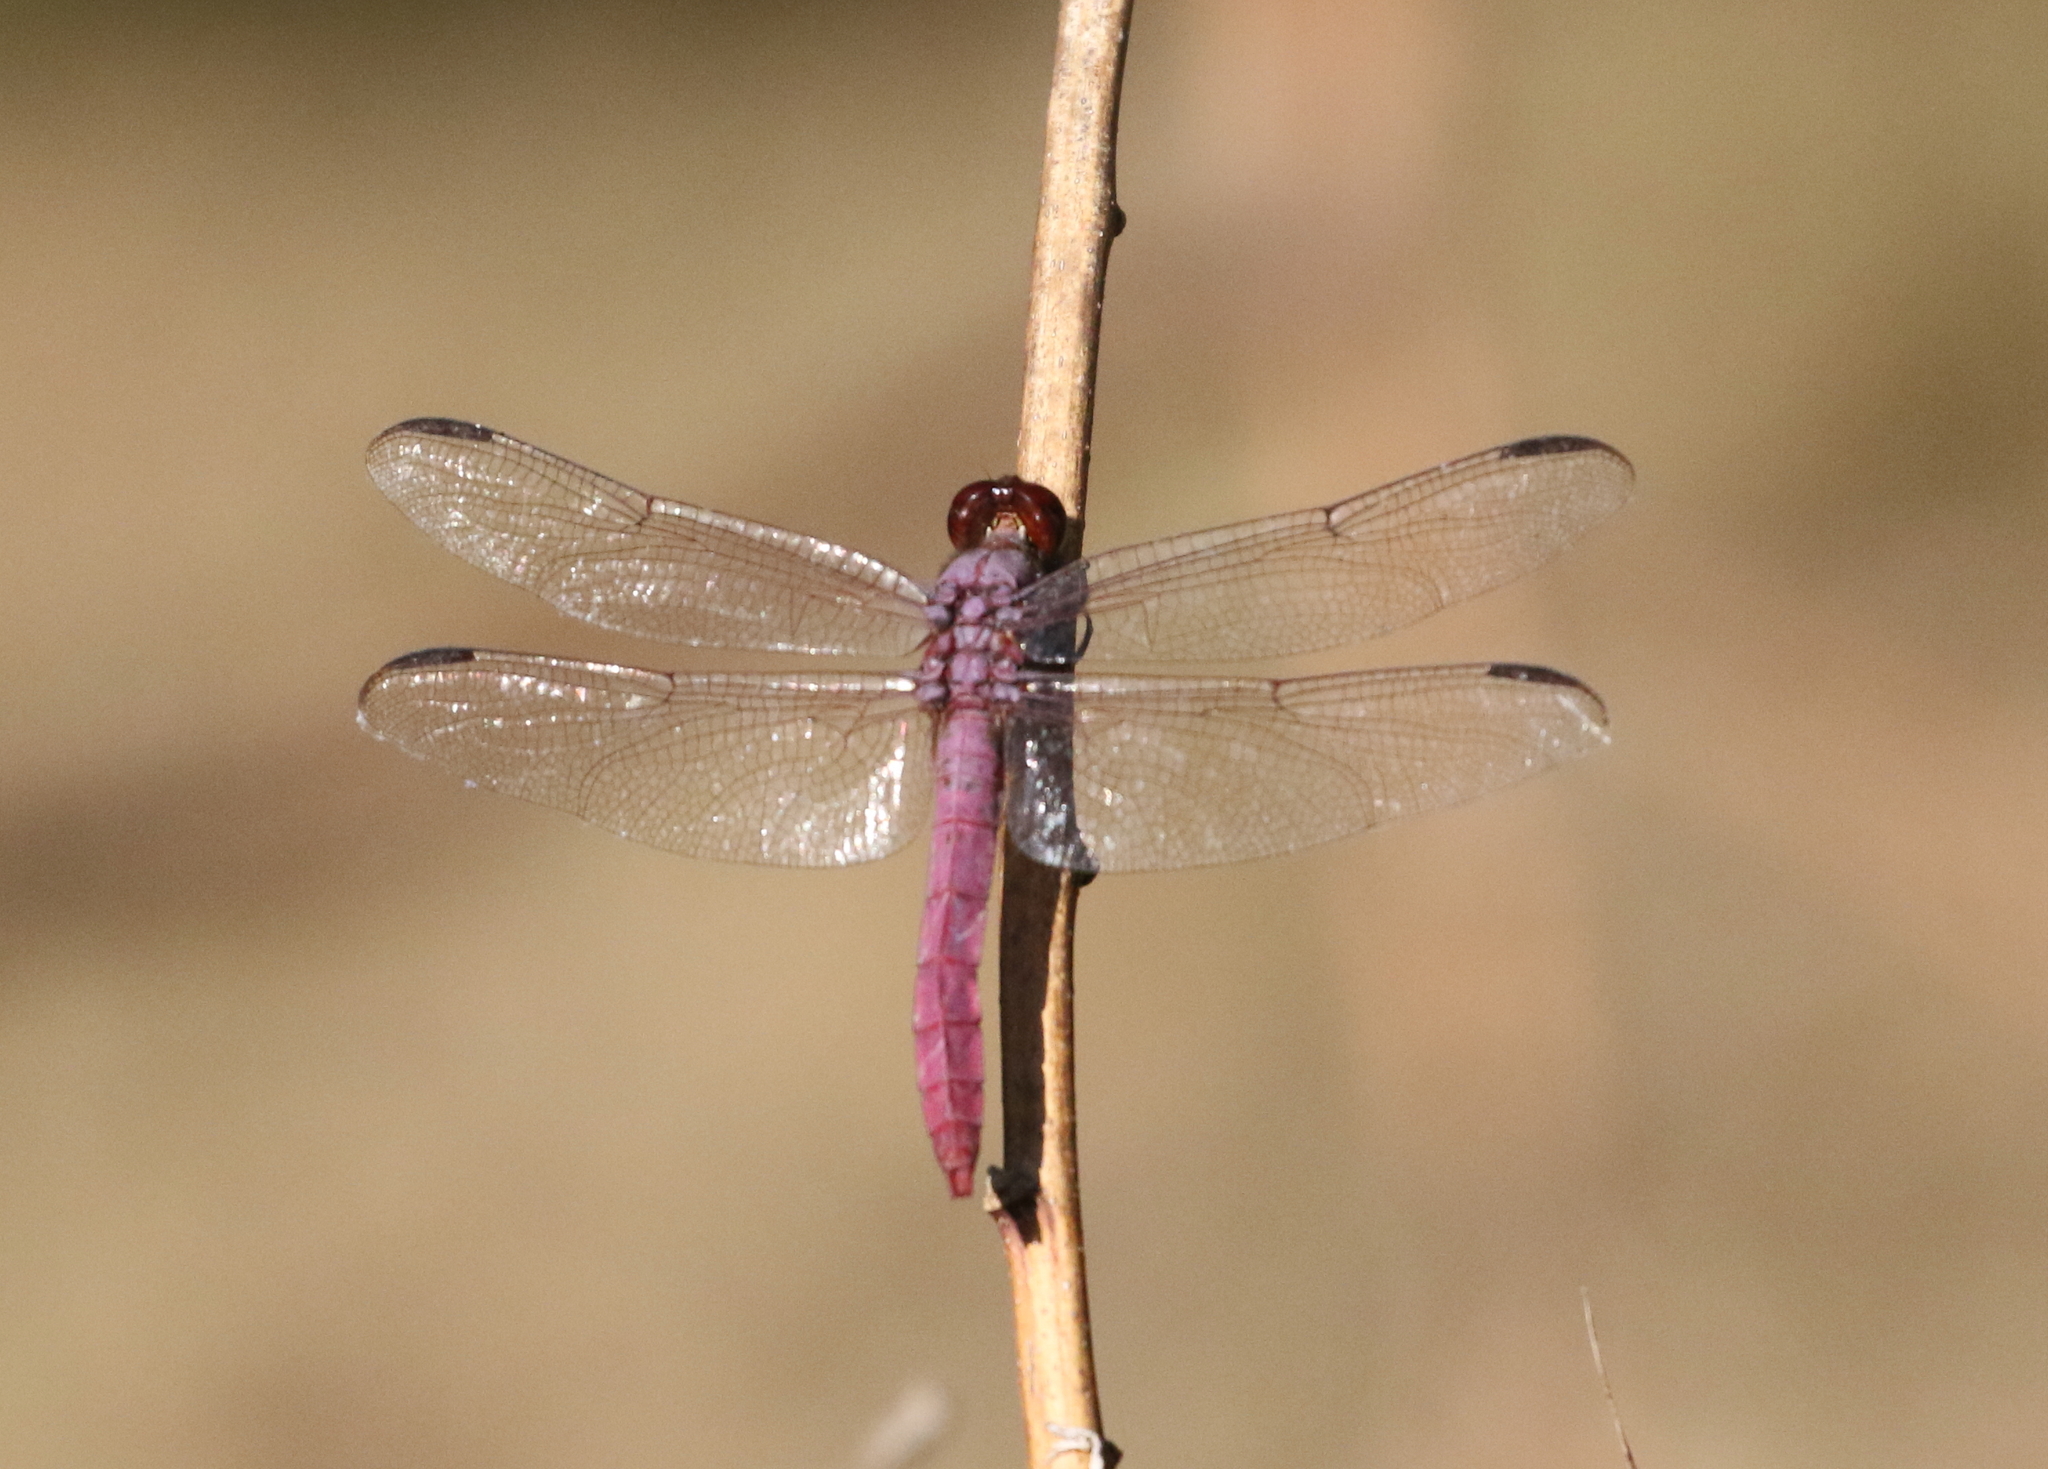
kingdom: Animalia
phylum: Arthropoda
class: Insecta
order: Odonata
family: Libellulidae
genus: Orthemis
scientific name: Orthemis ferruginea
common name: Roseate skimmer
